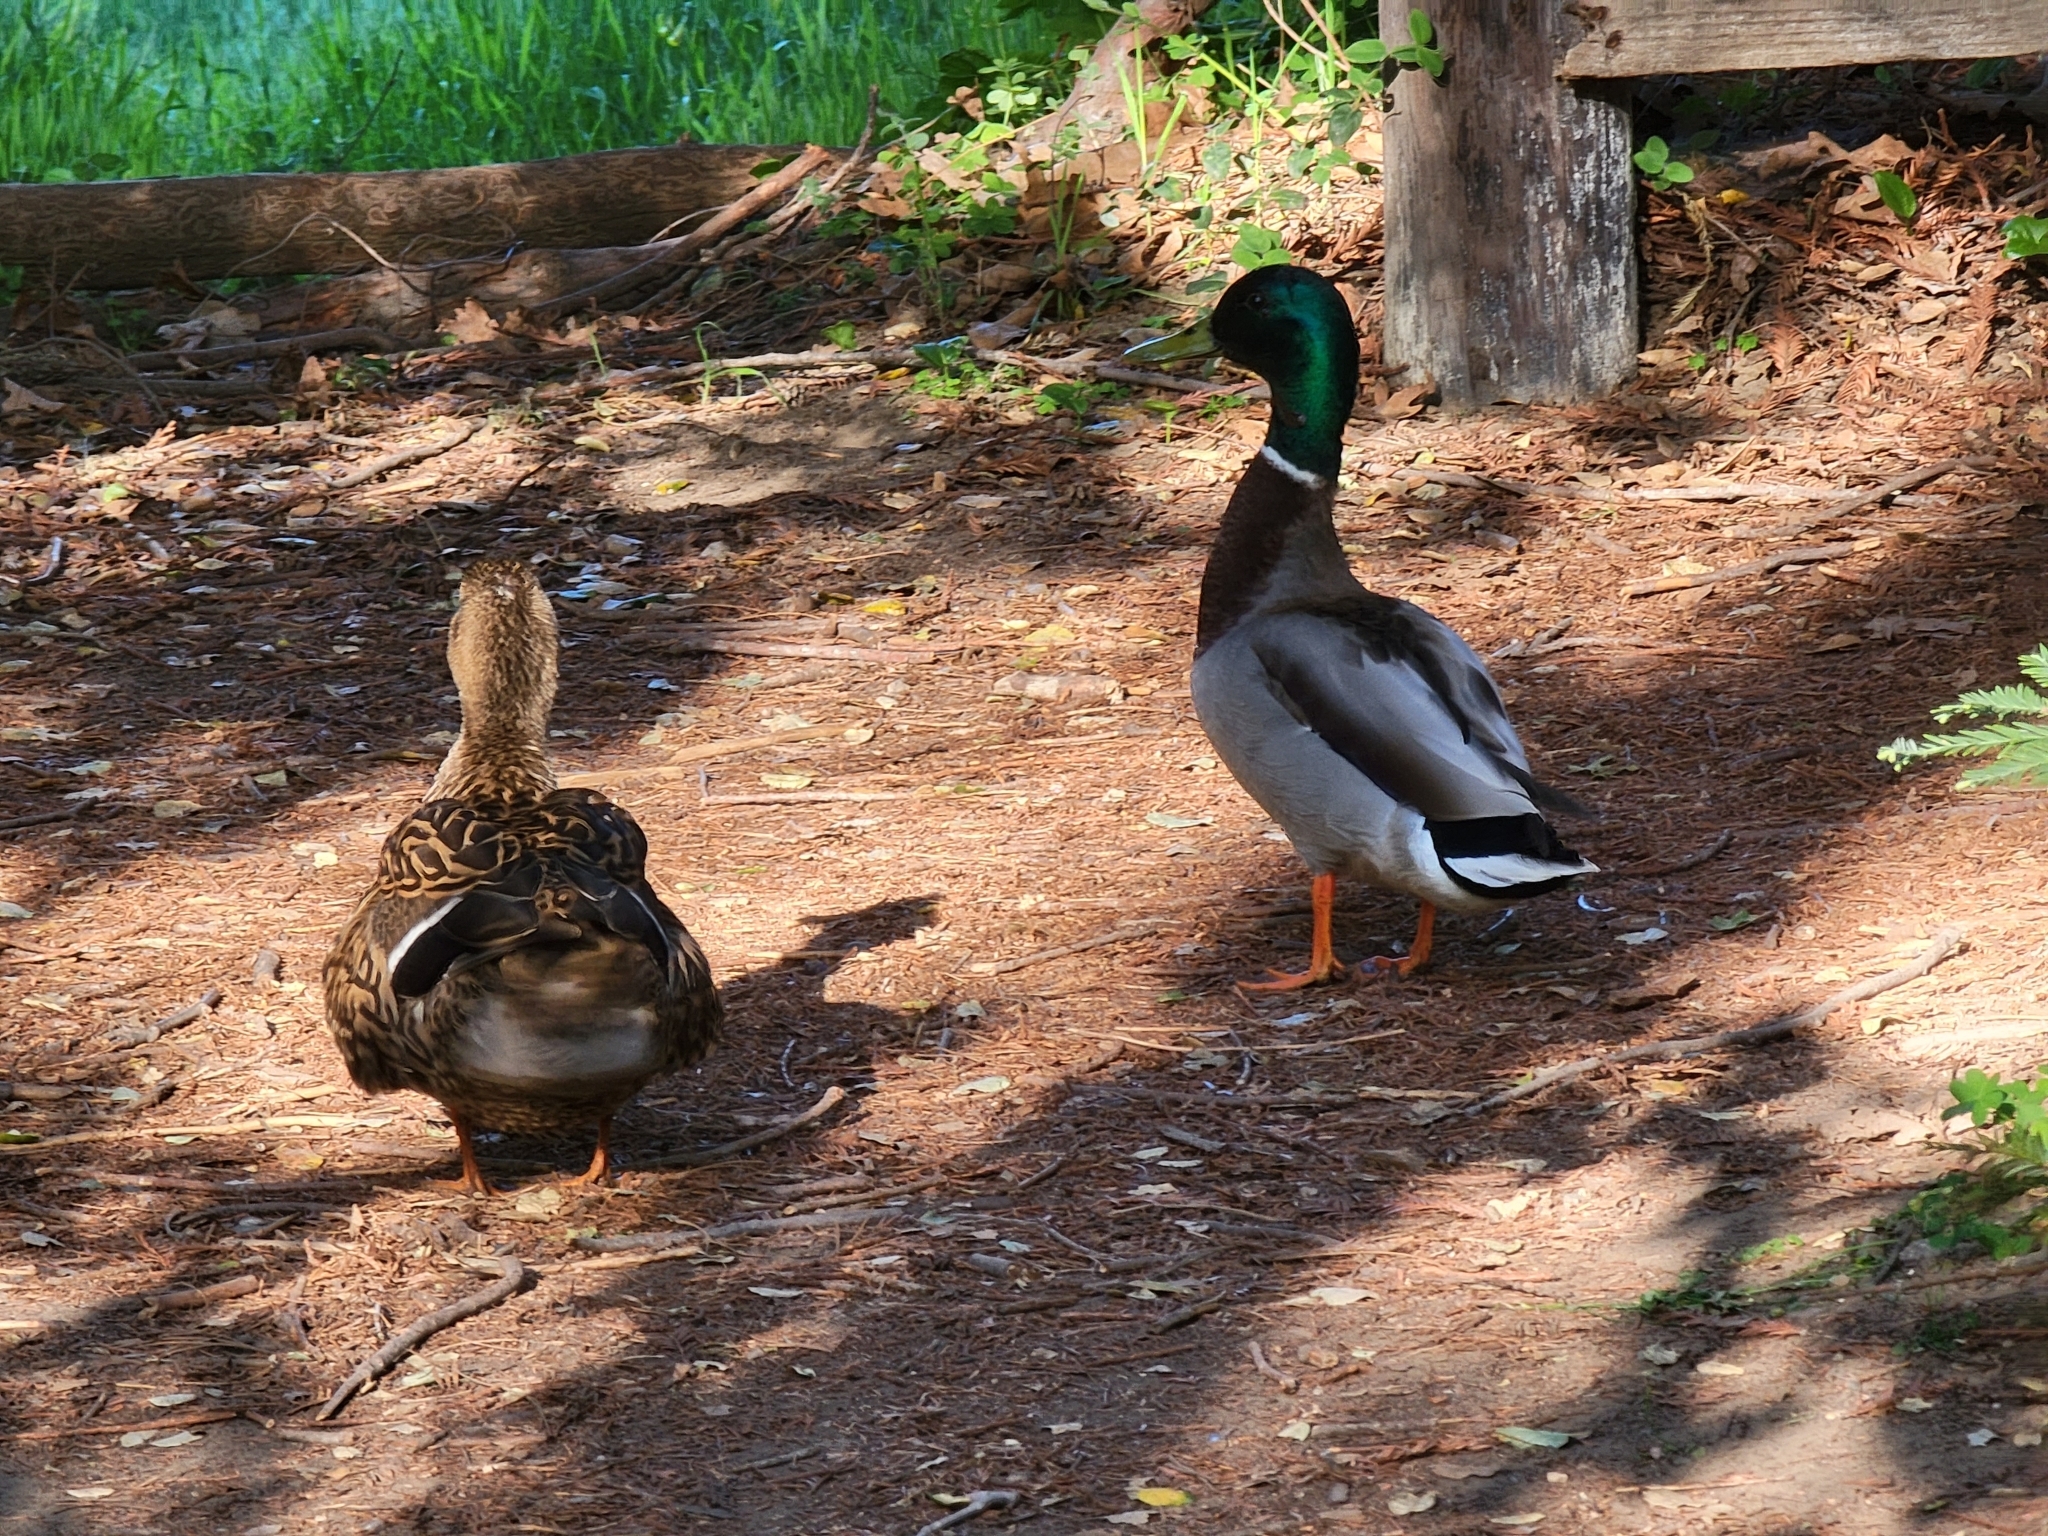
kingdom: Animalia
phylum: Chordata
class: Aves
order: Anseriformes
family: Anatidae
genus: Anas
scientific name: Anas platyrhynchos
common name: Mallard
